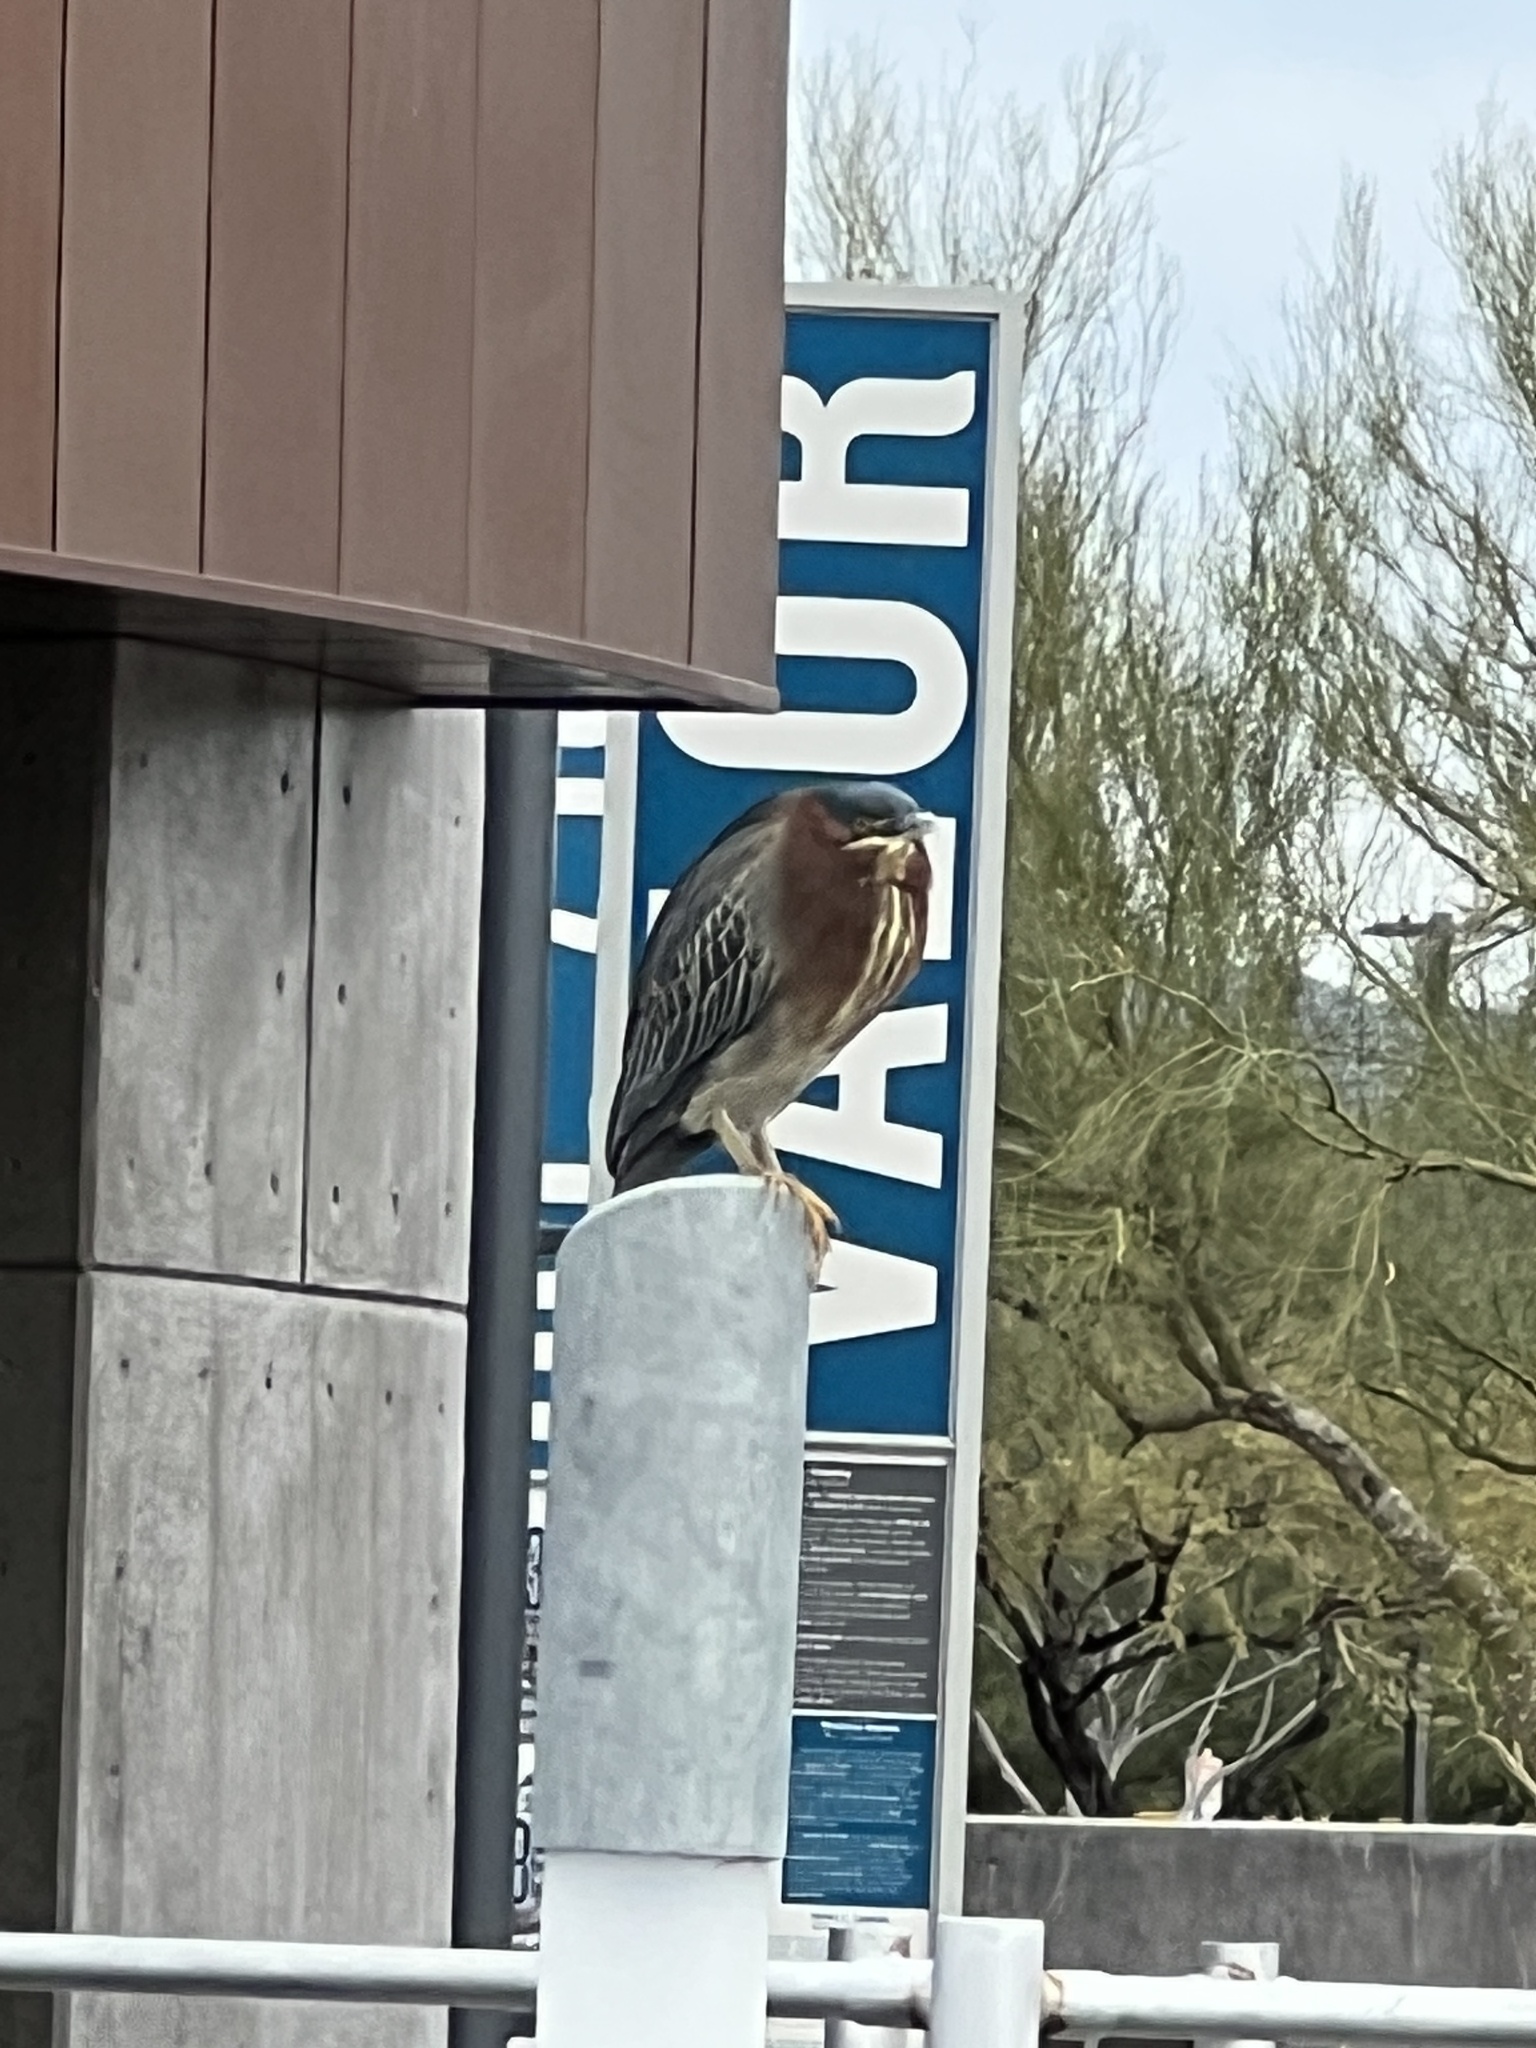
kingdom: Animalia
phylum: Chordata
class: Aves
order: Pelecaniformes
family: Ardeidae
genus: Butorides
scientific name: Butorides virescens
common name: Green heron
